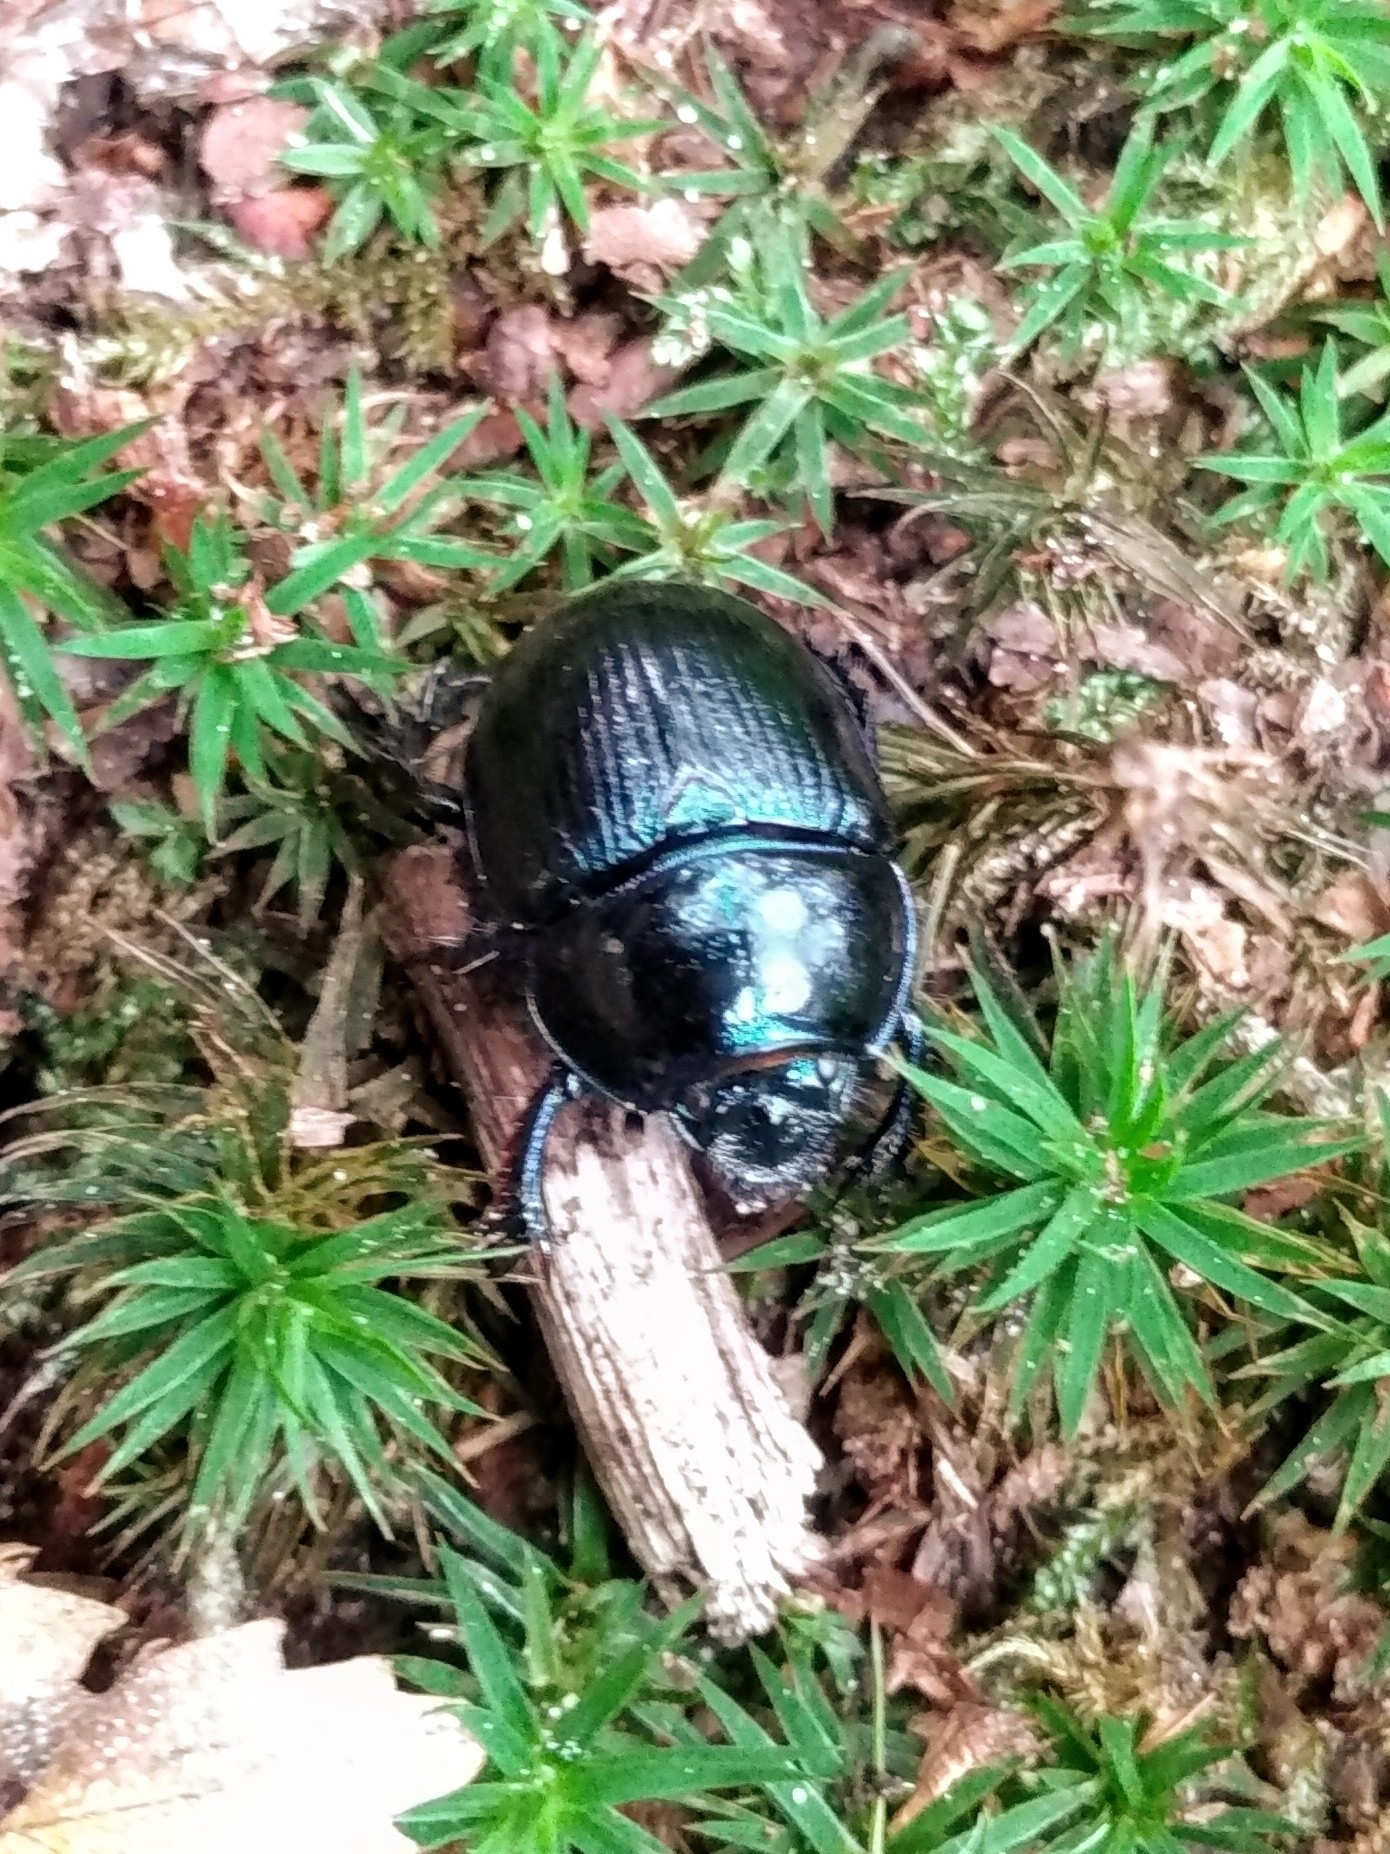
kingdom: Animalia
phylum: Arthropoda
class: Insecta
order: Coleoptera
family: Geotrupidae
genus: Anoplotrupes
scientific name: Anoplotrupes stercorosus
